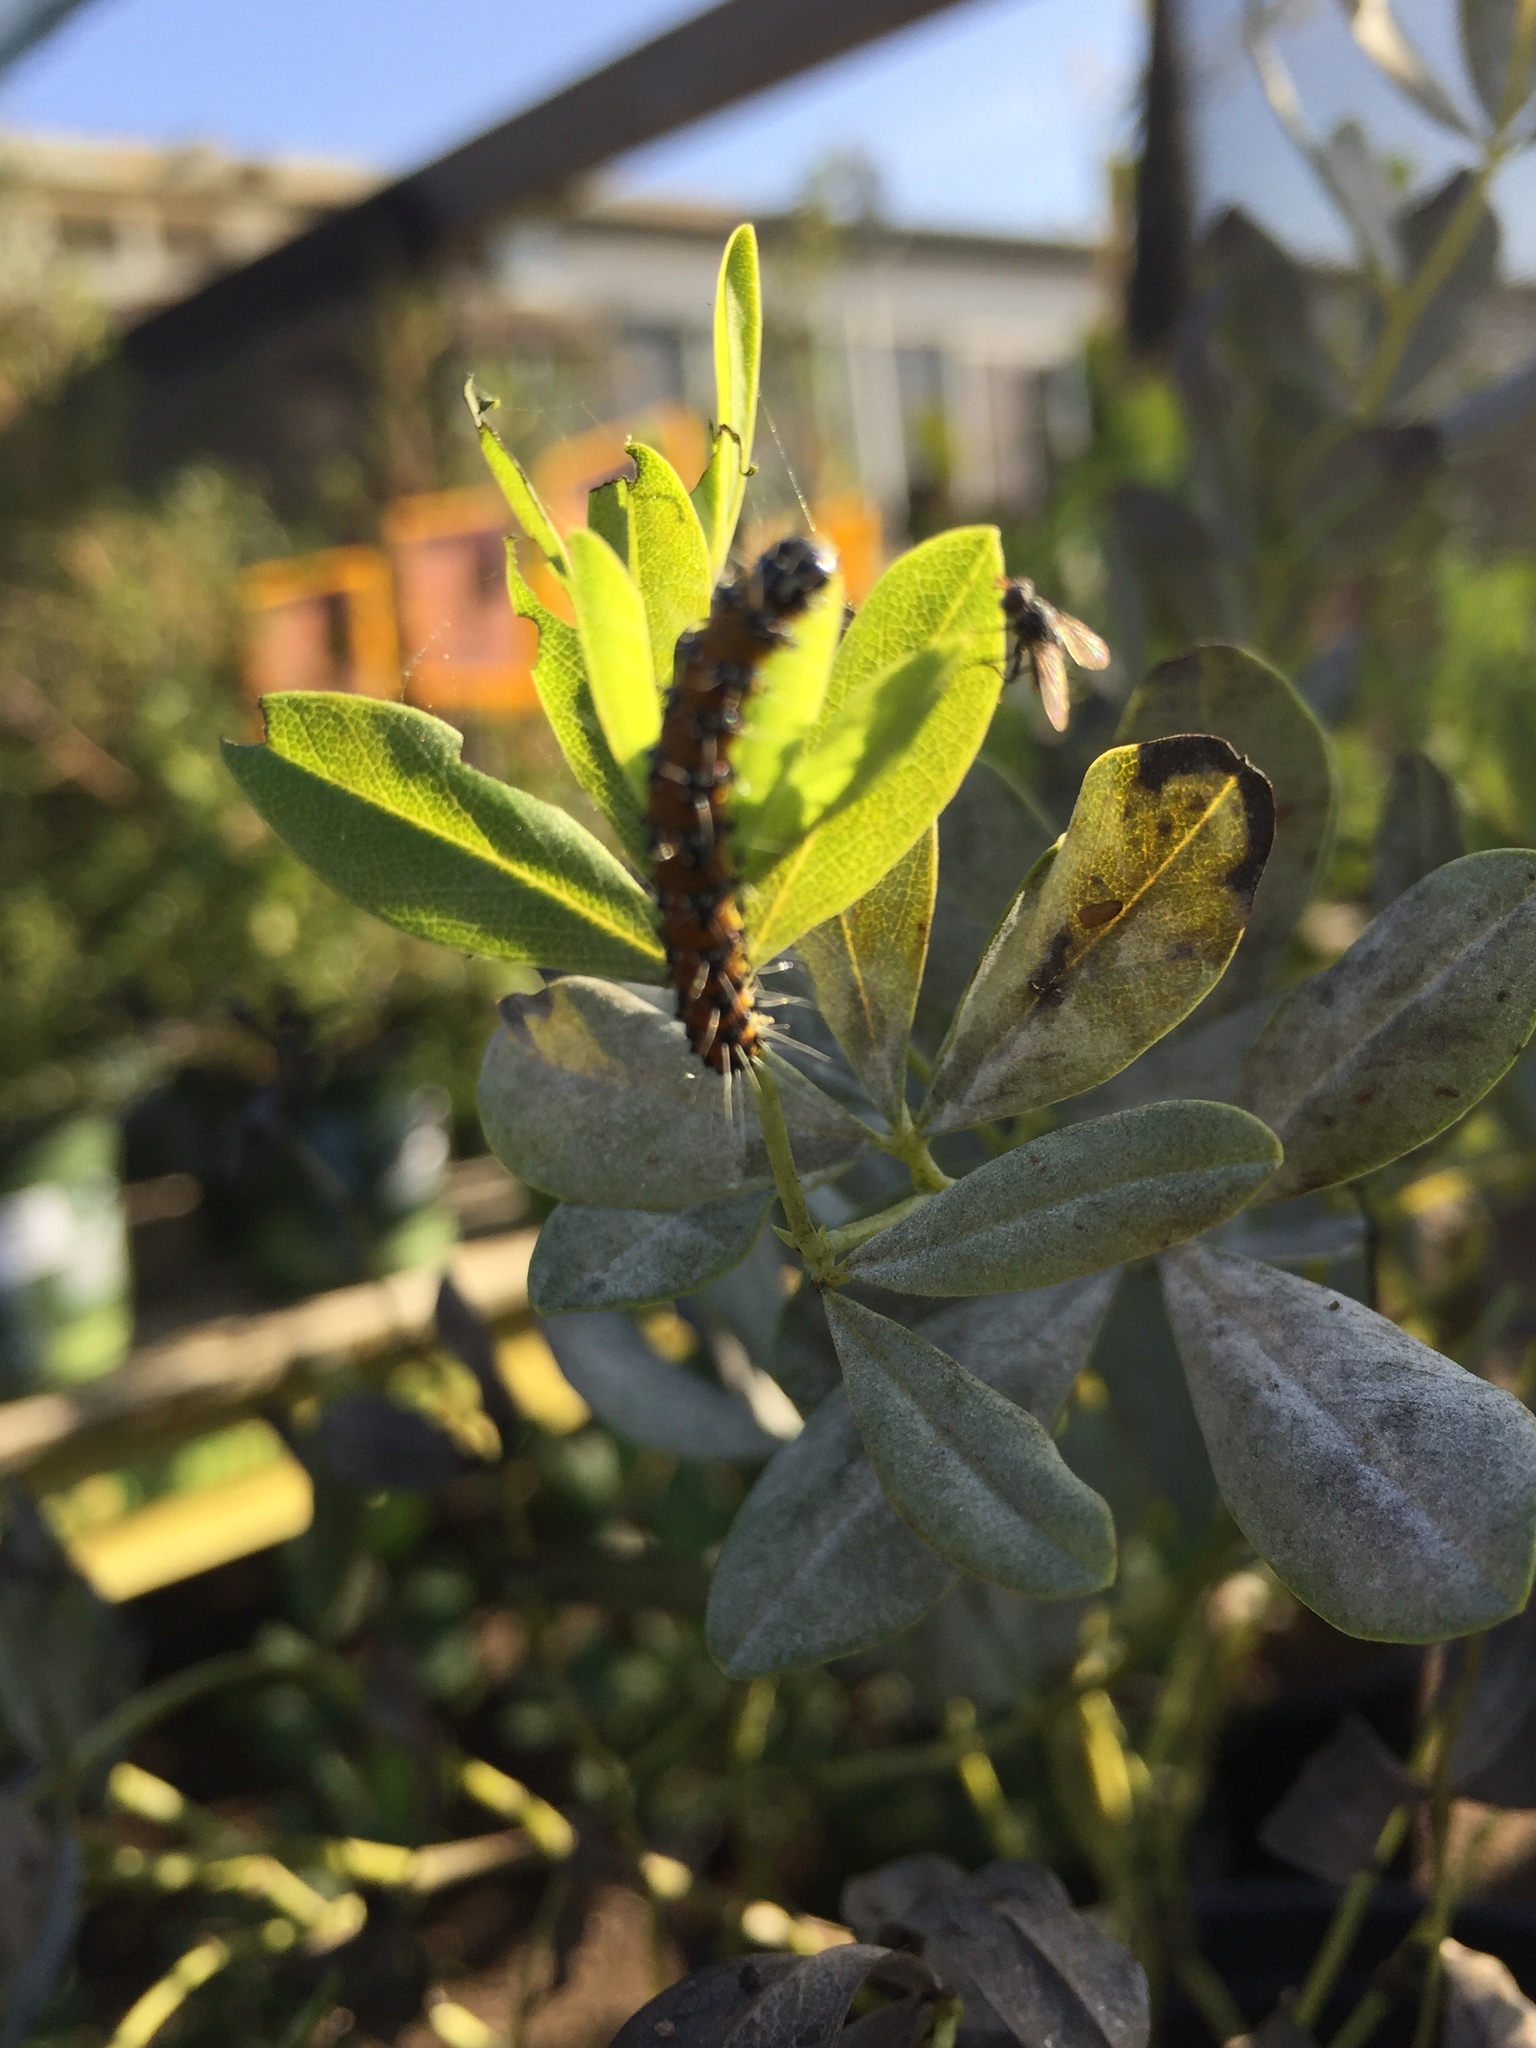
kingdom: Animalia
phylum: Arthropoda
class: Insecta
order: Lepidoptera
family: Crambidae
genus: Uresiphita
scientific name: Uresiphita reversalis
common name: Genista broom moth
